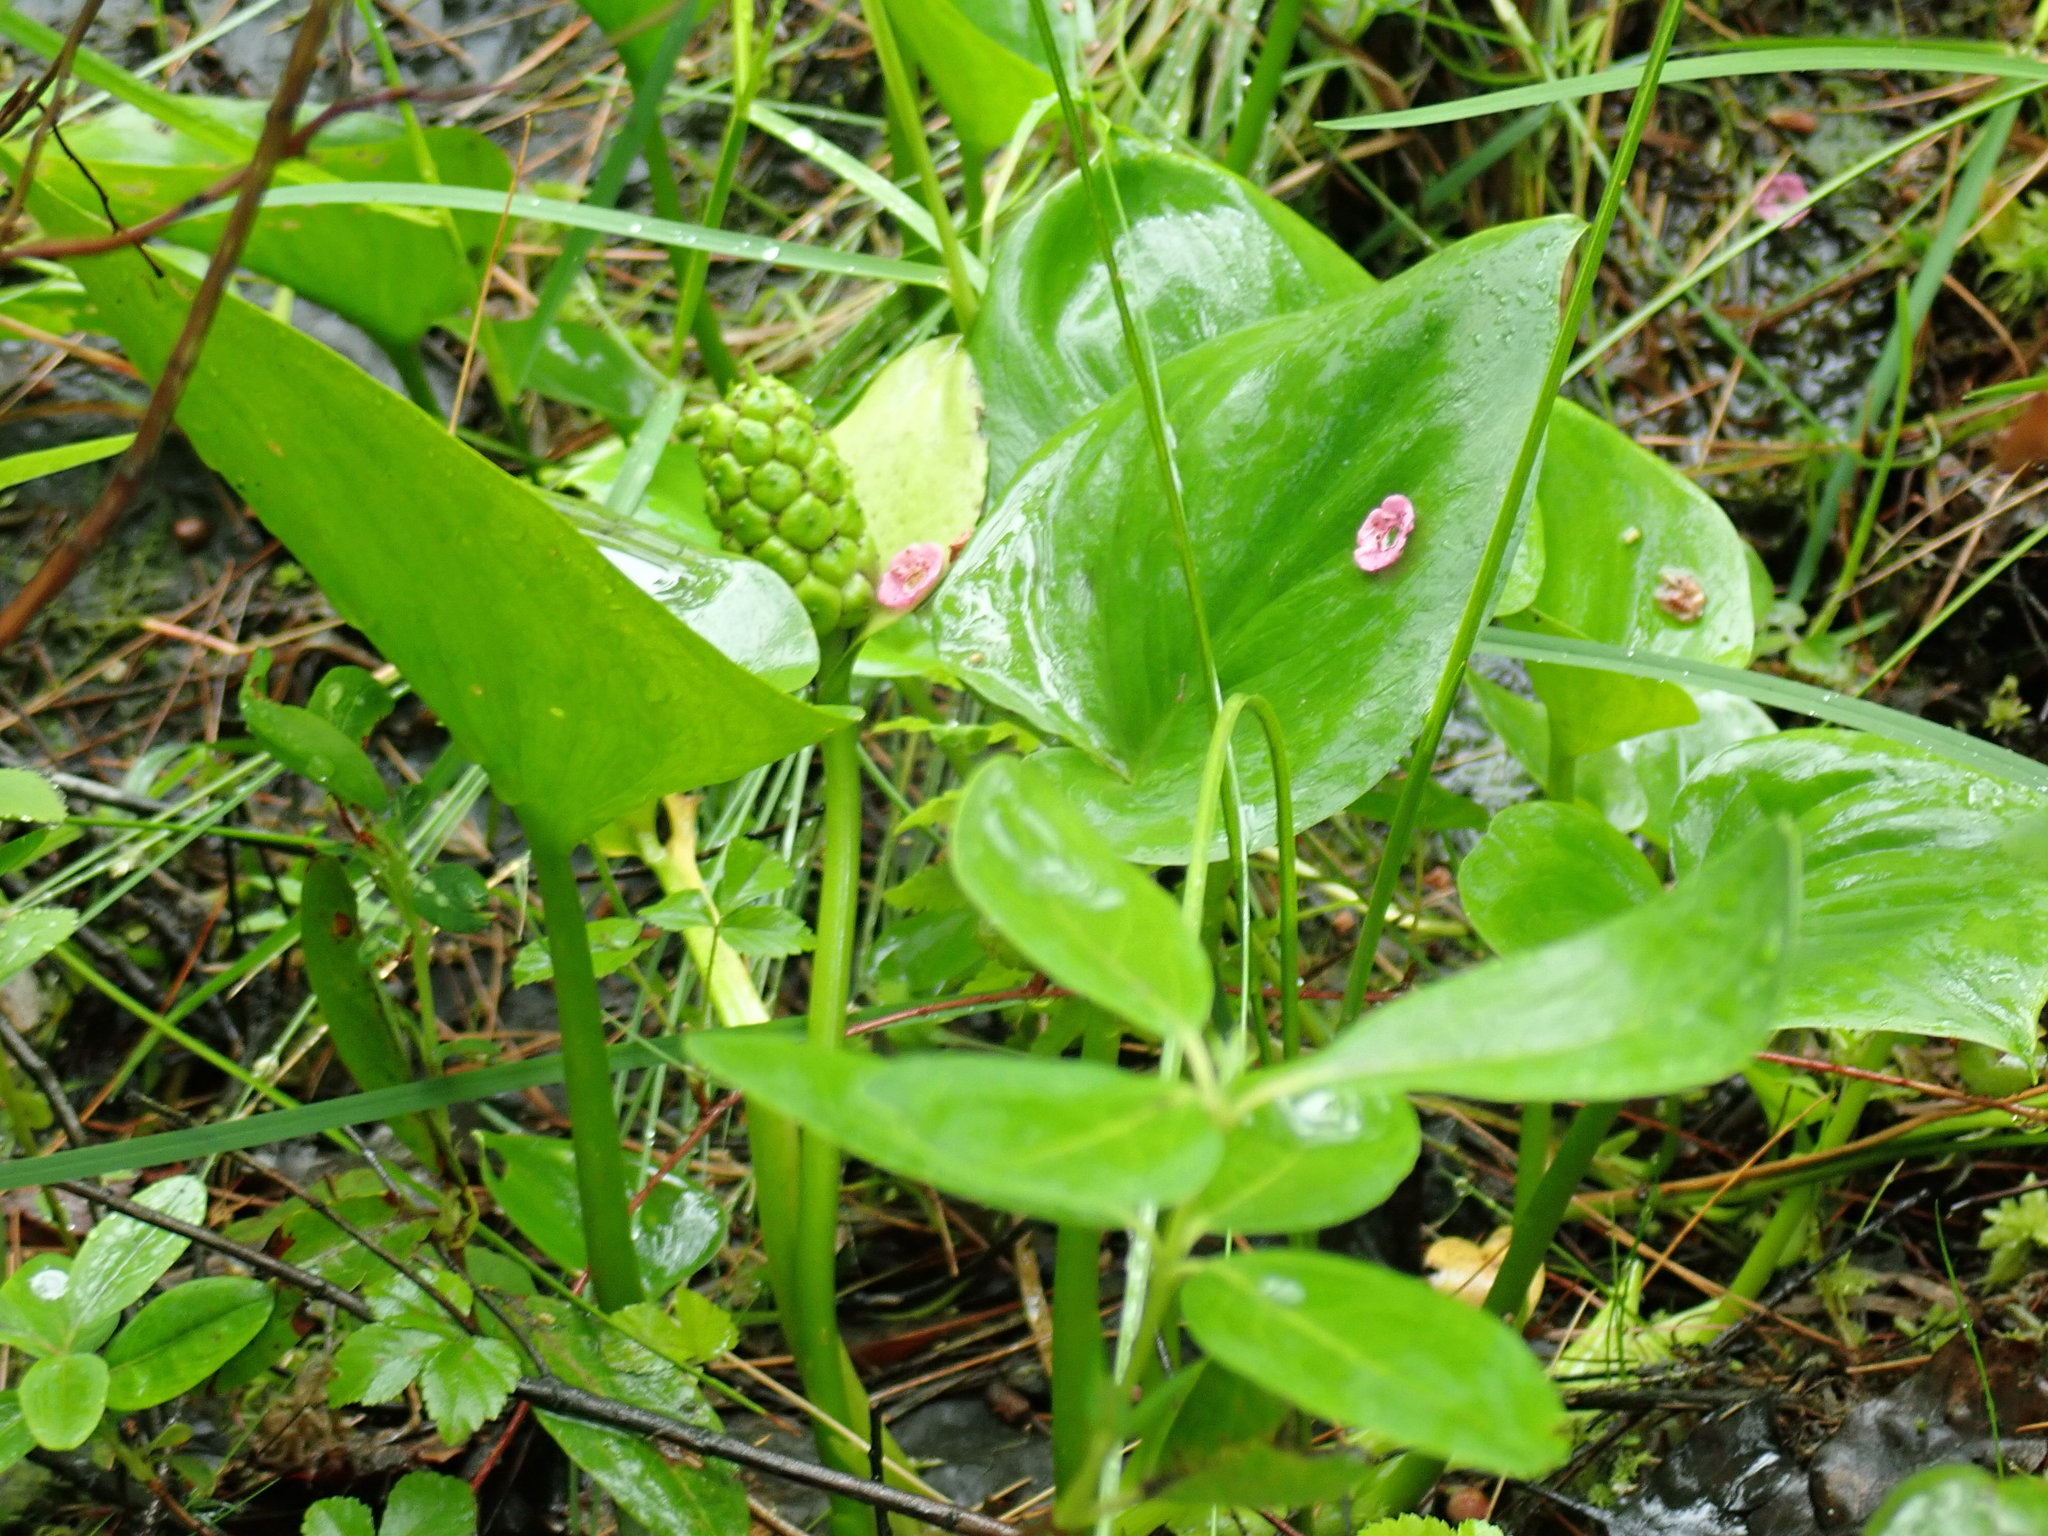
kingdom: Plantae
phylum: Tracheophyta
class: Liliopsida
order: Alismatales
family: Araceae
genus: Calla
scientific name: Calla palustris
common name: Bog arum
